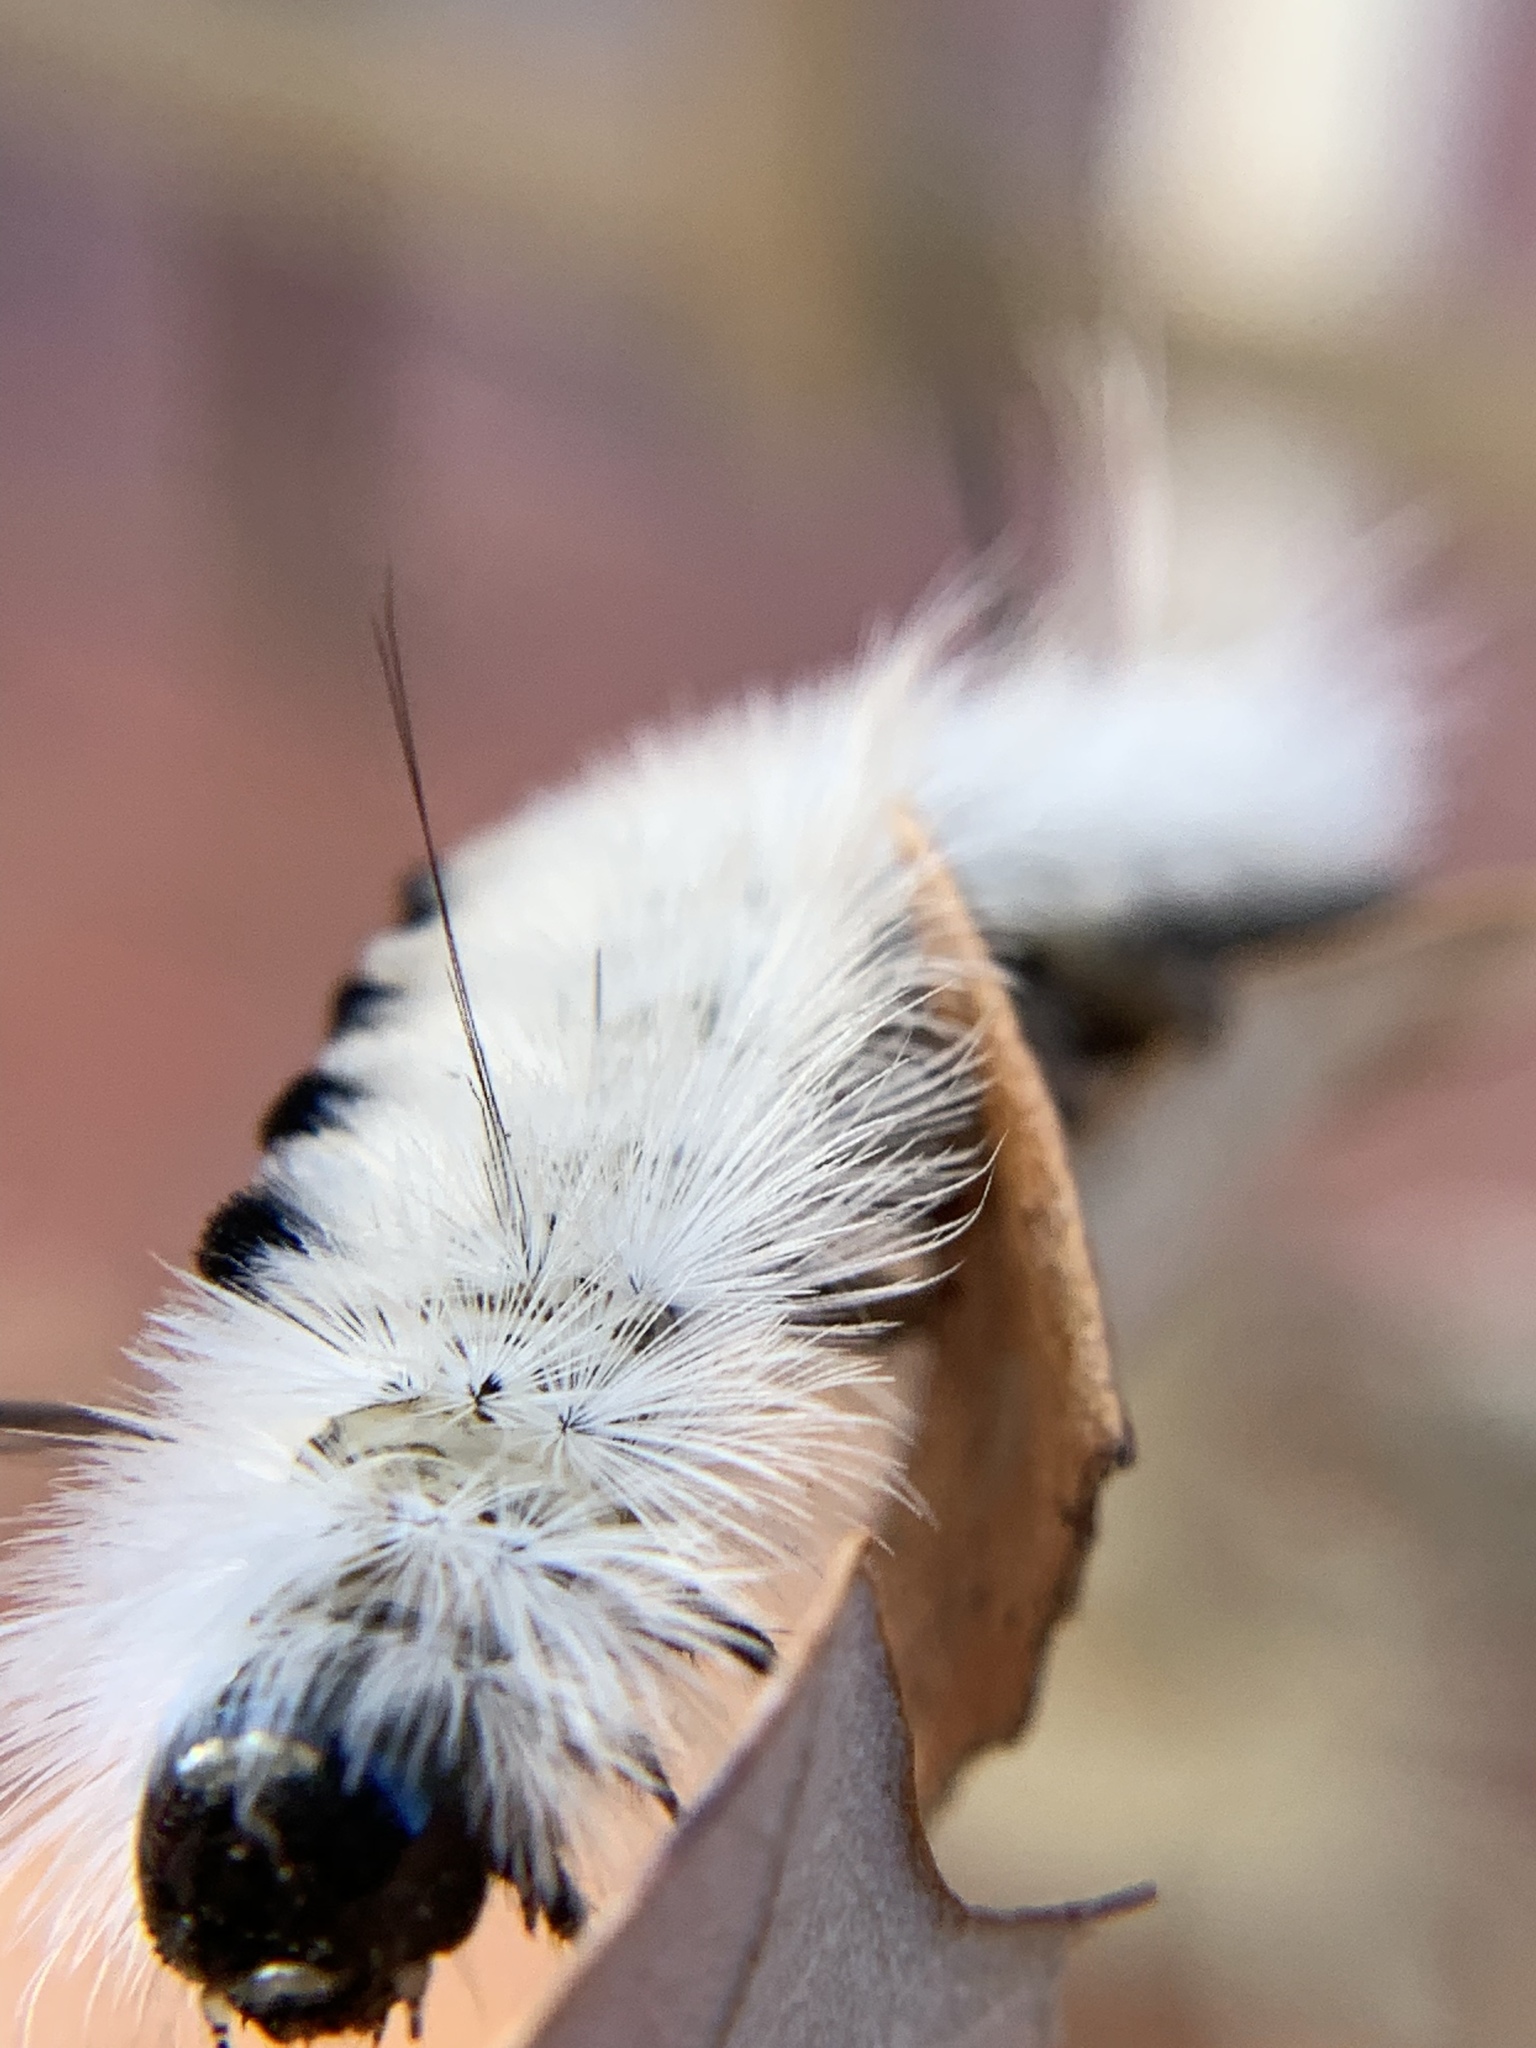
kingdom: Animalia
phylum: Arthropoda
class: Insecta
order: Lepidoptera
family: Erebidae
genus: Lophocampa
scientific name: Lophocampa caryae
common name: Hickory tussock moth
